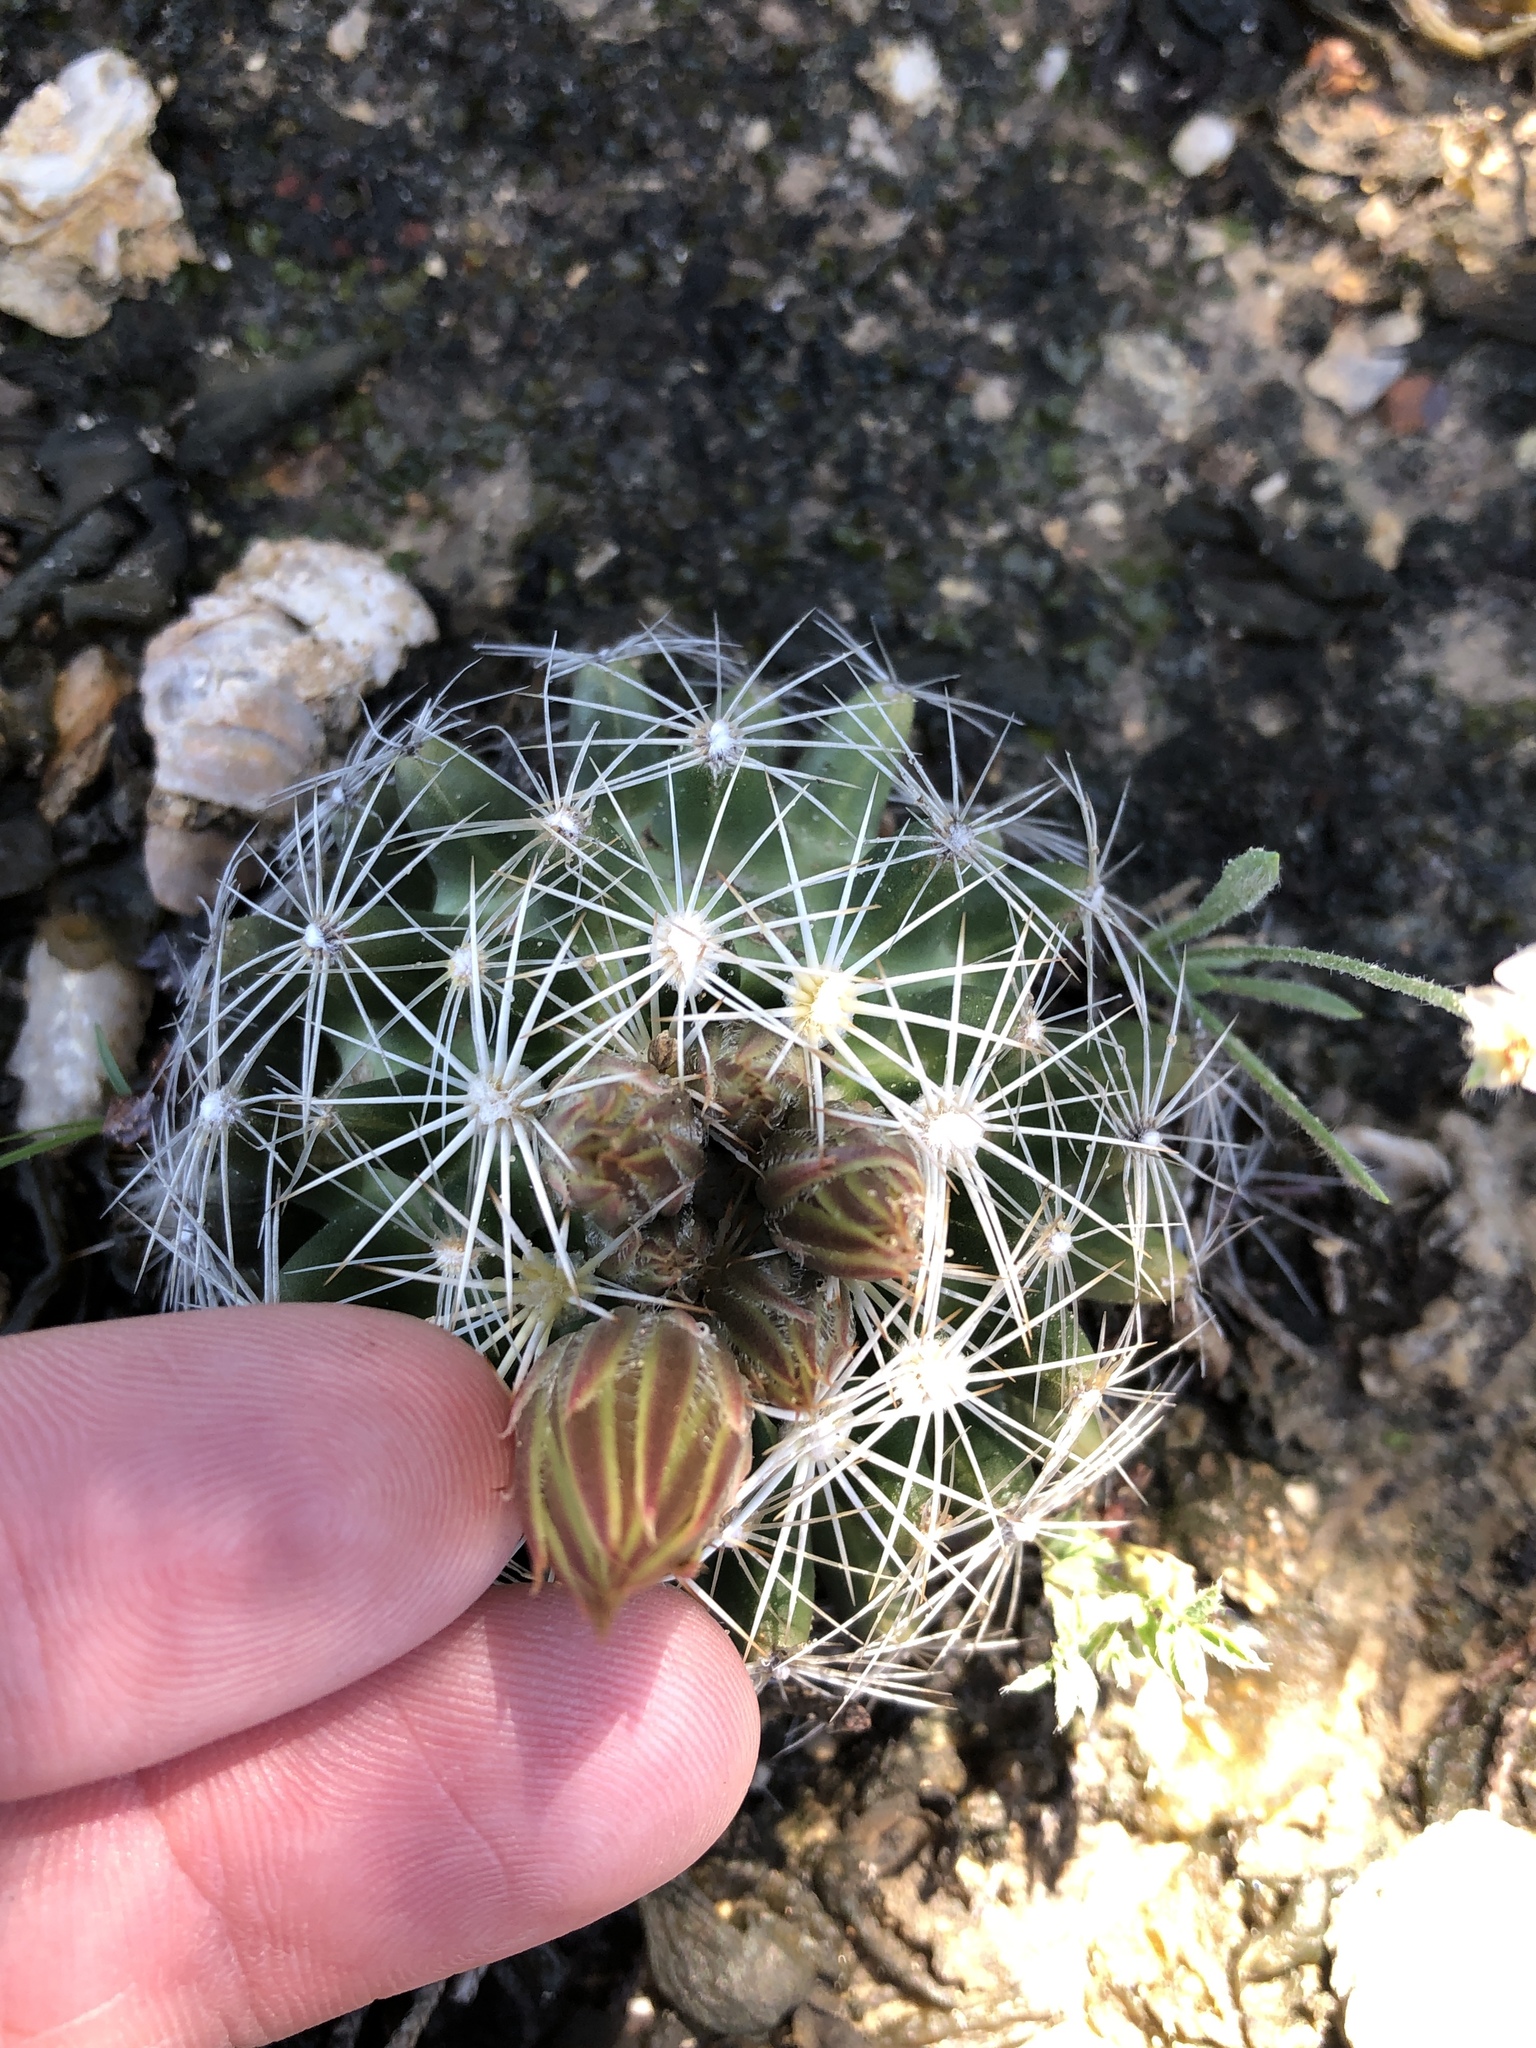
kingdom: Plantae
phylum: Tracheophyta
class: Magnoliopsida
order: Caryophyllales
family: Cactaceae
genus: Pelecyphora
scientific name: Pelecyphora missouriensis
